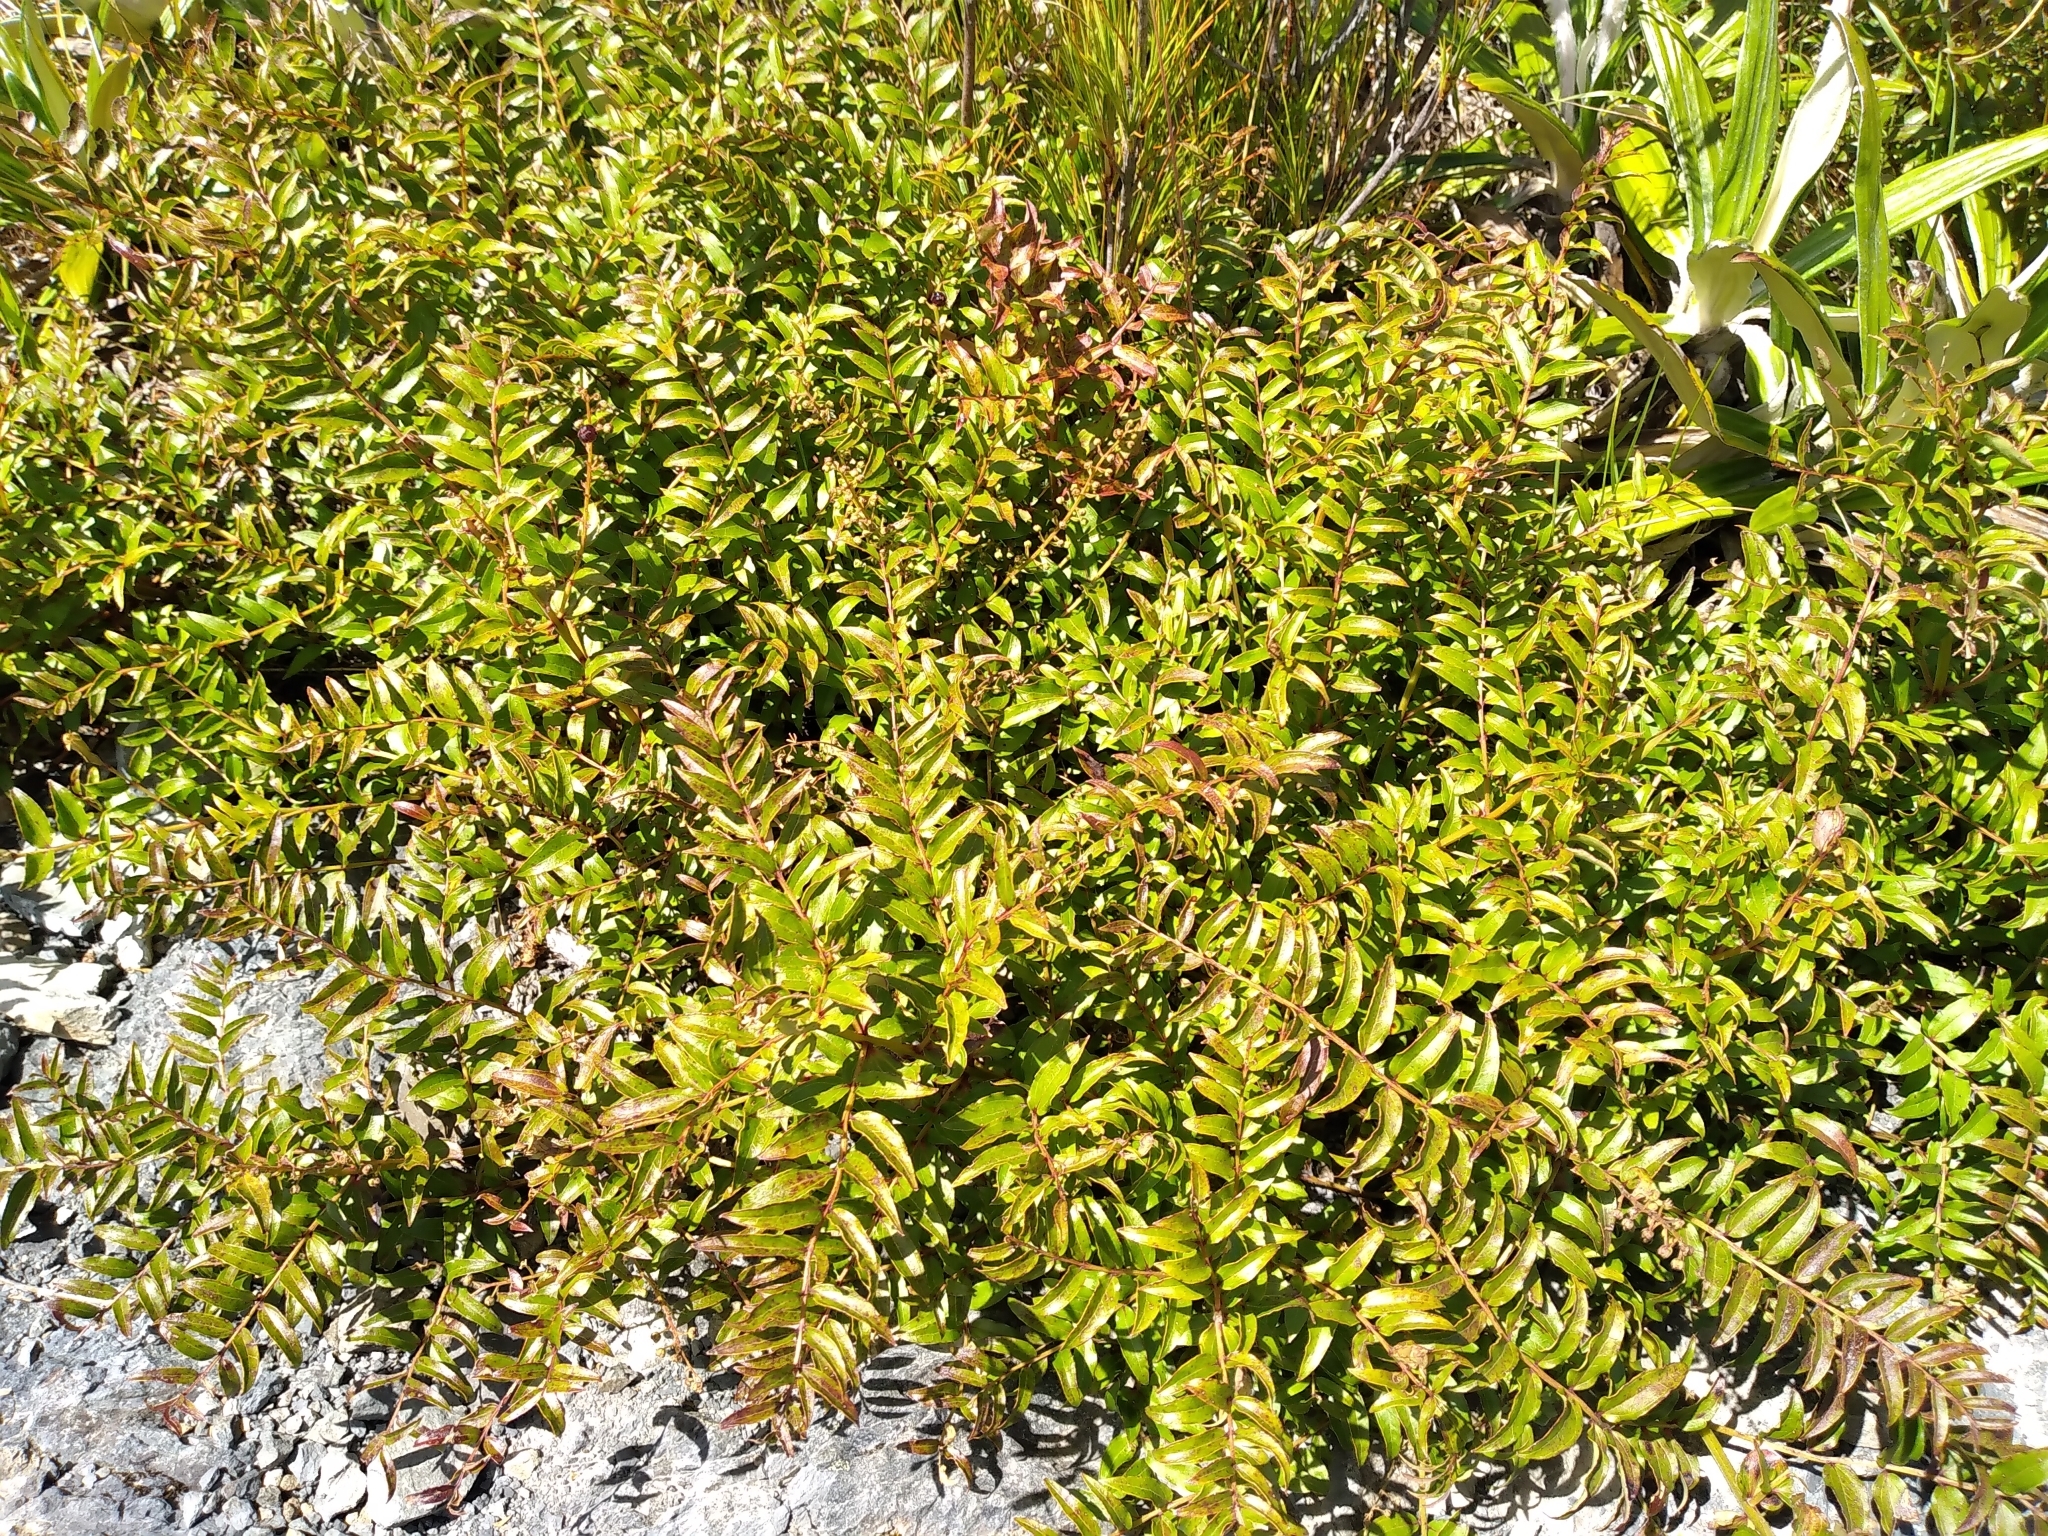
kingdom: Plantae
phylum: Tracheophyta
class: Magnoliopsida
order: Cucurbitales
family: Coriariaceae
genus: Coriaria
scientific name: Coriaria plumosa
